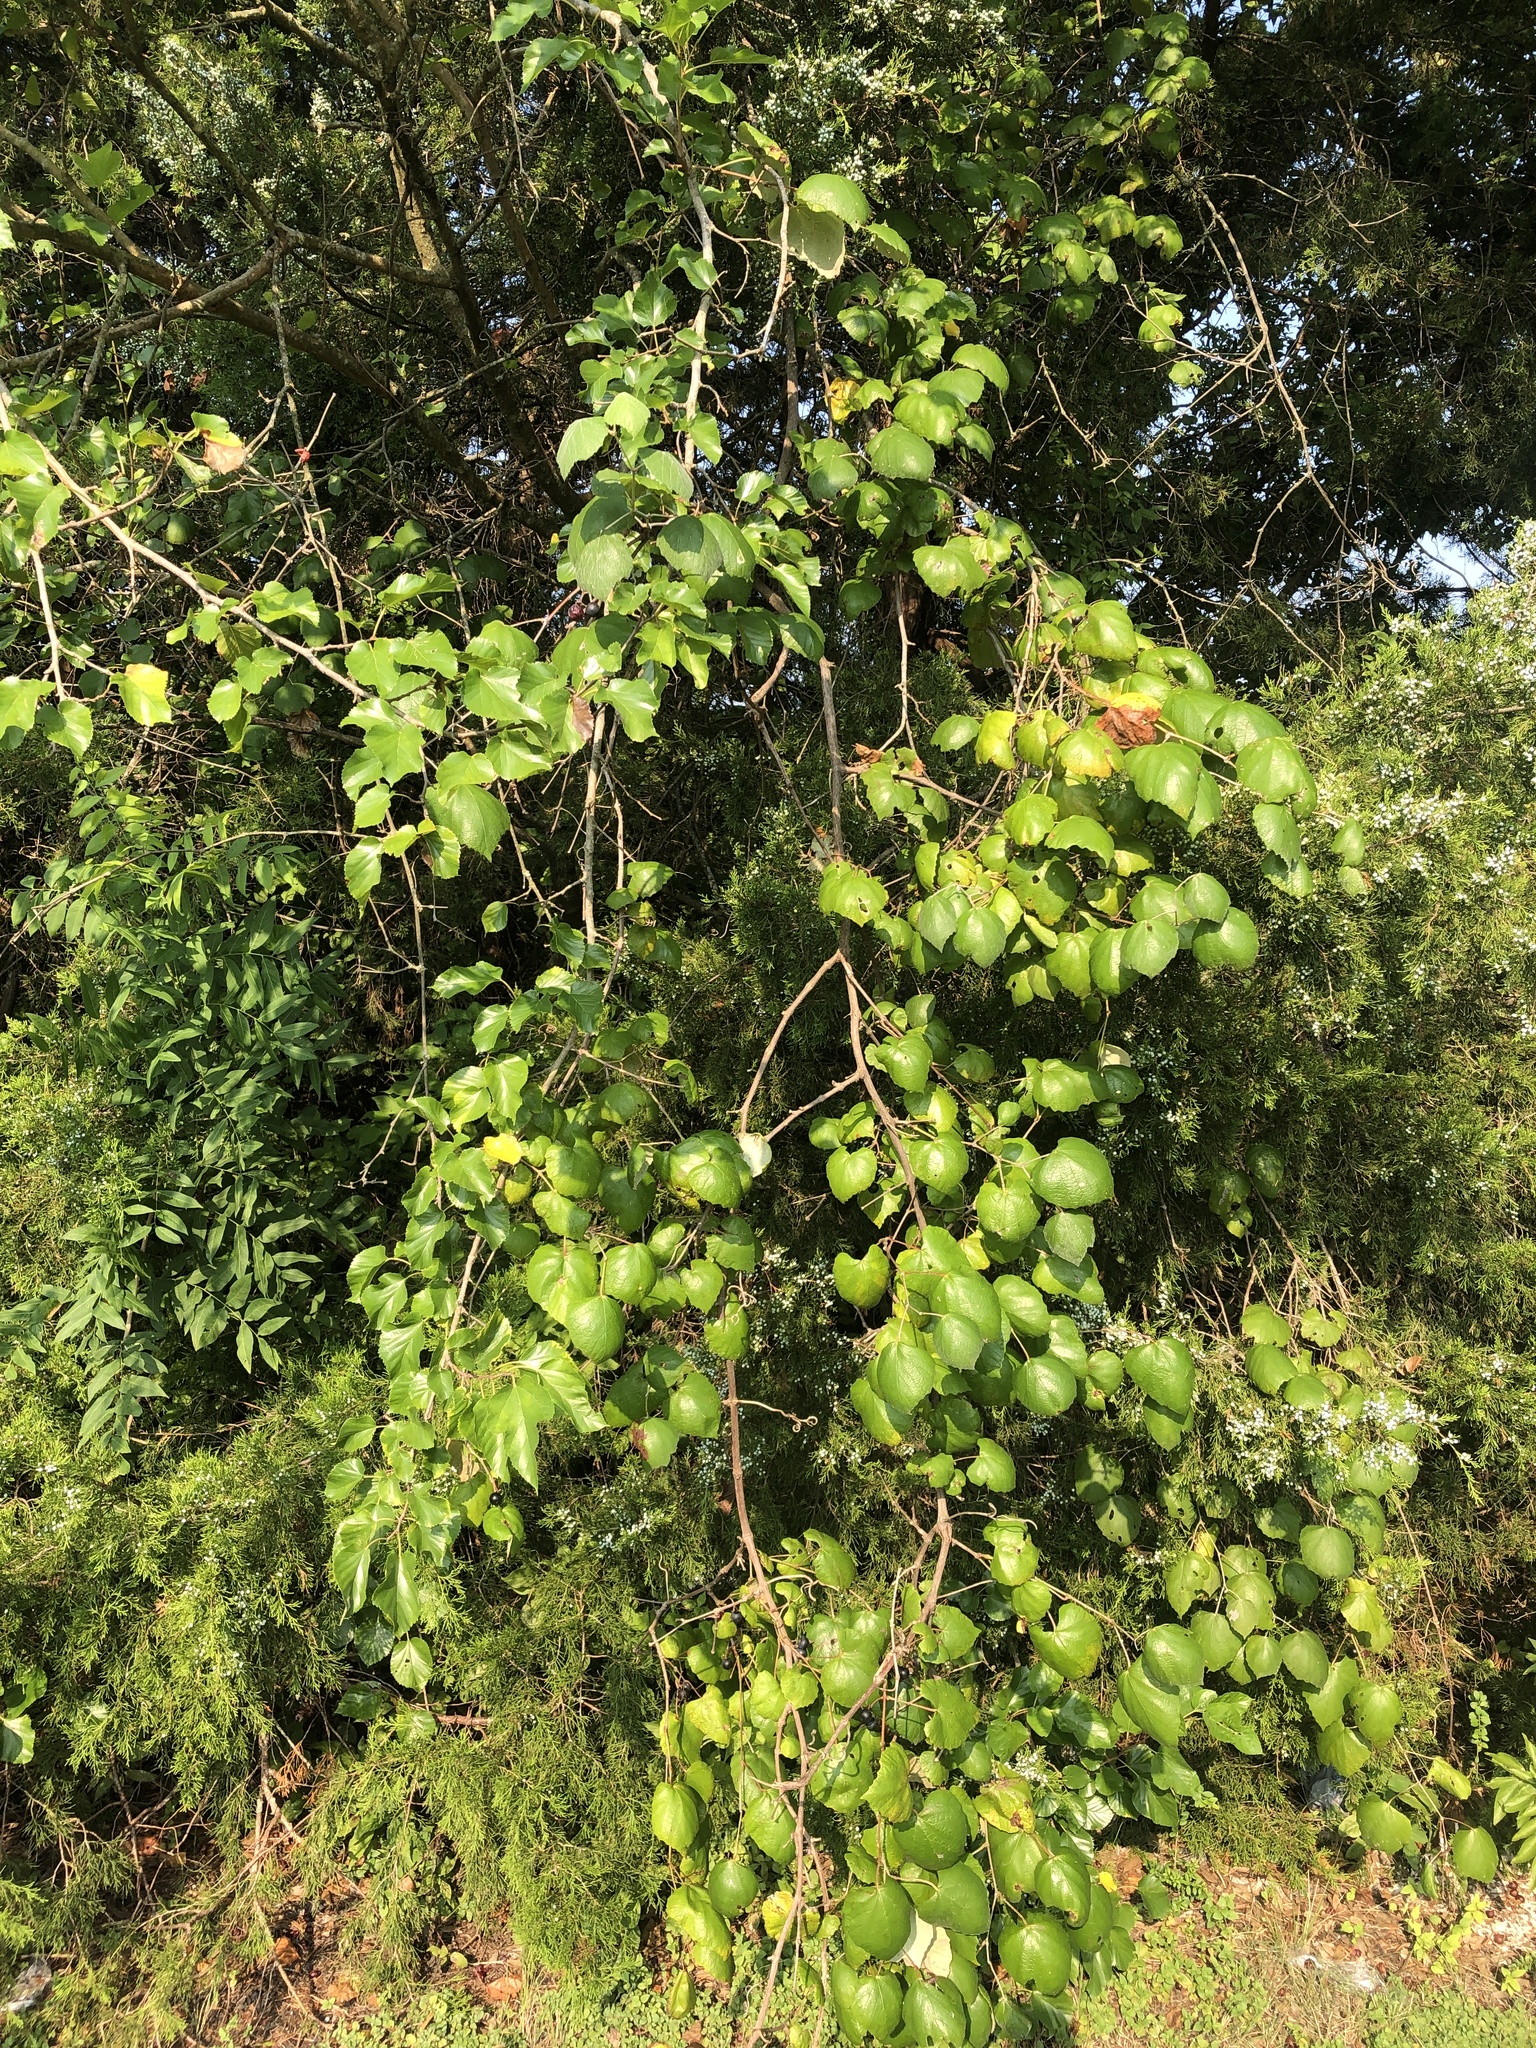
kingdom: Plantae
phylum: Tracheophyta
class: Magnoliopsida
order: Vitales
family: Vitaceae
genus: Vitis
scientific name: Vitis mustangensis
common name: Mustang grape
